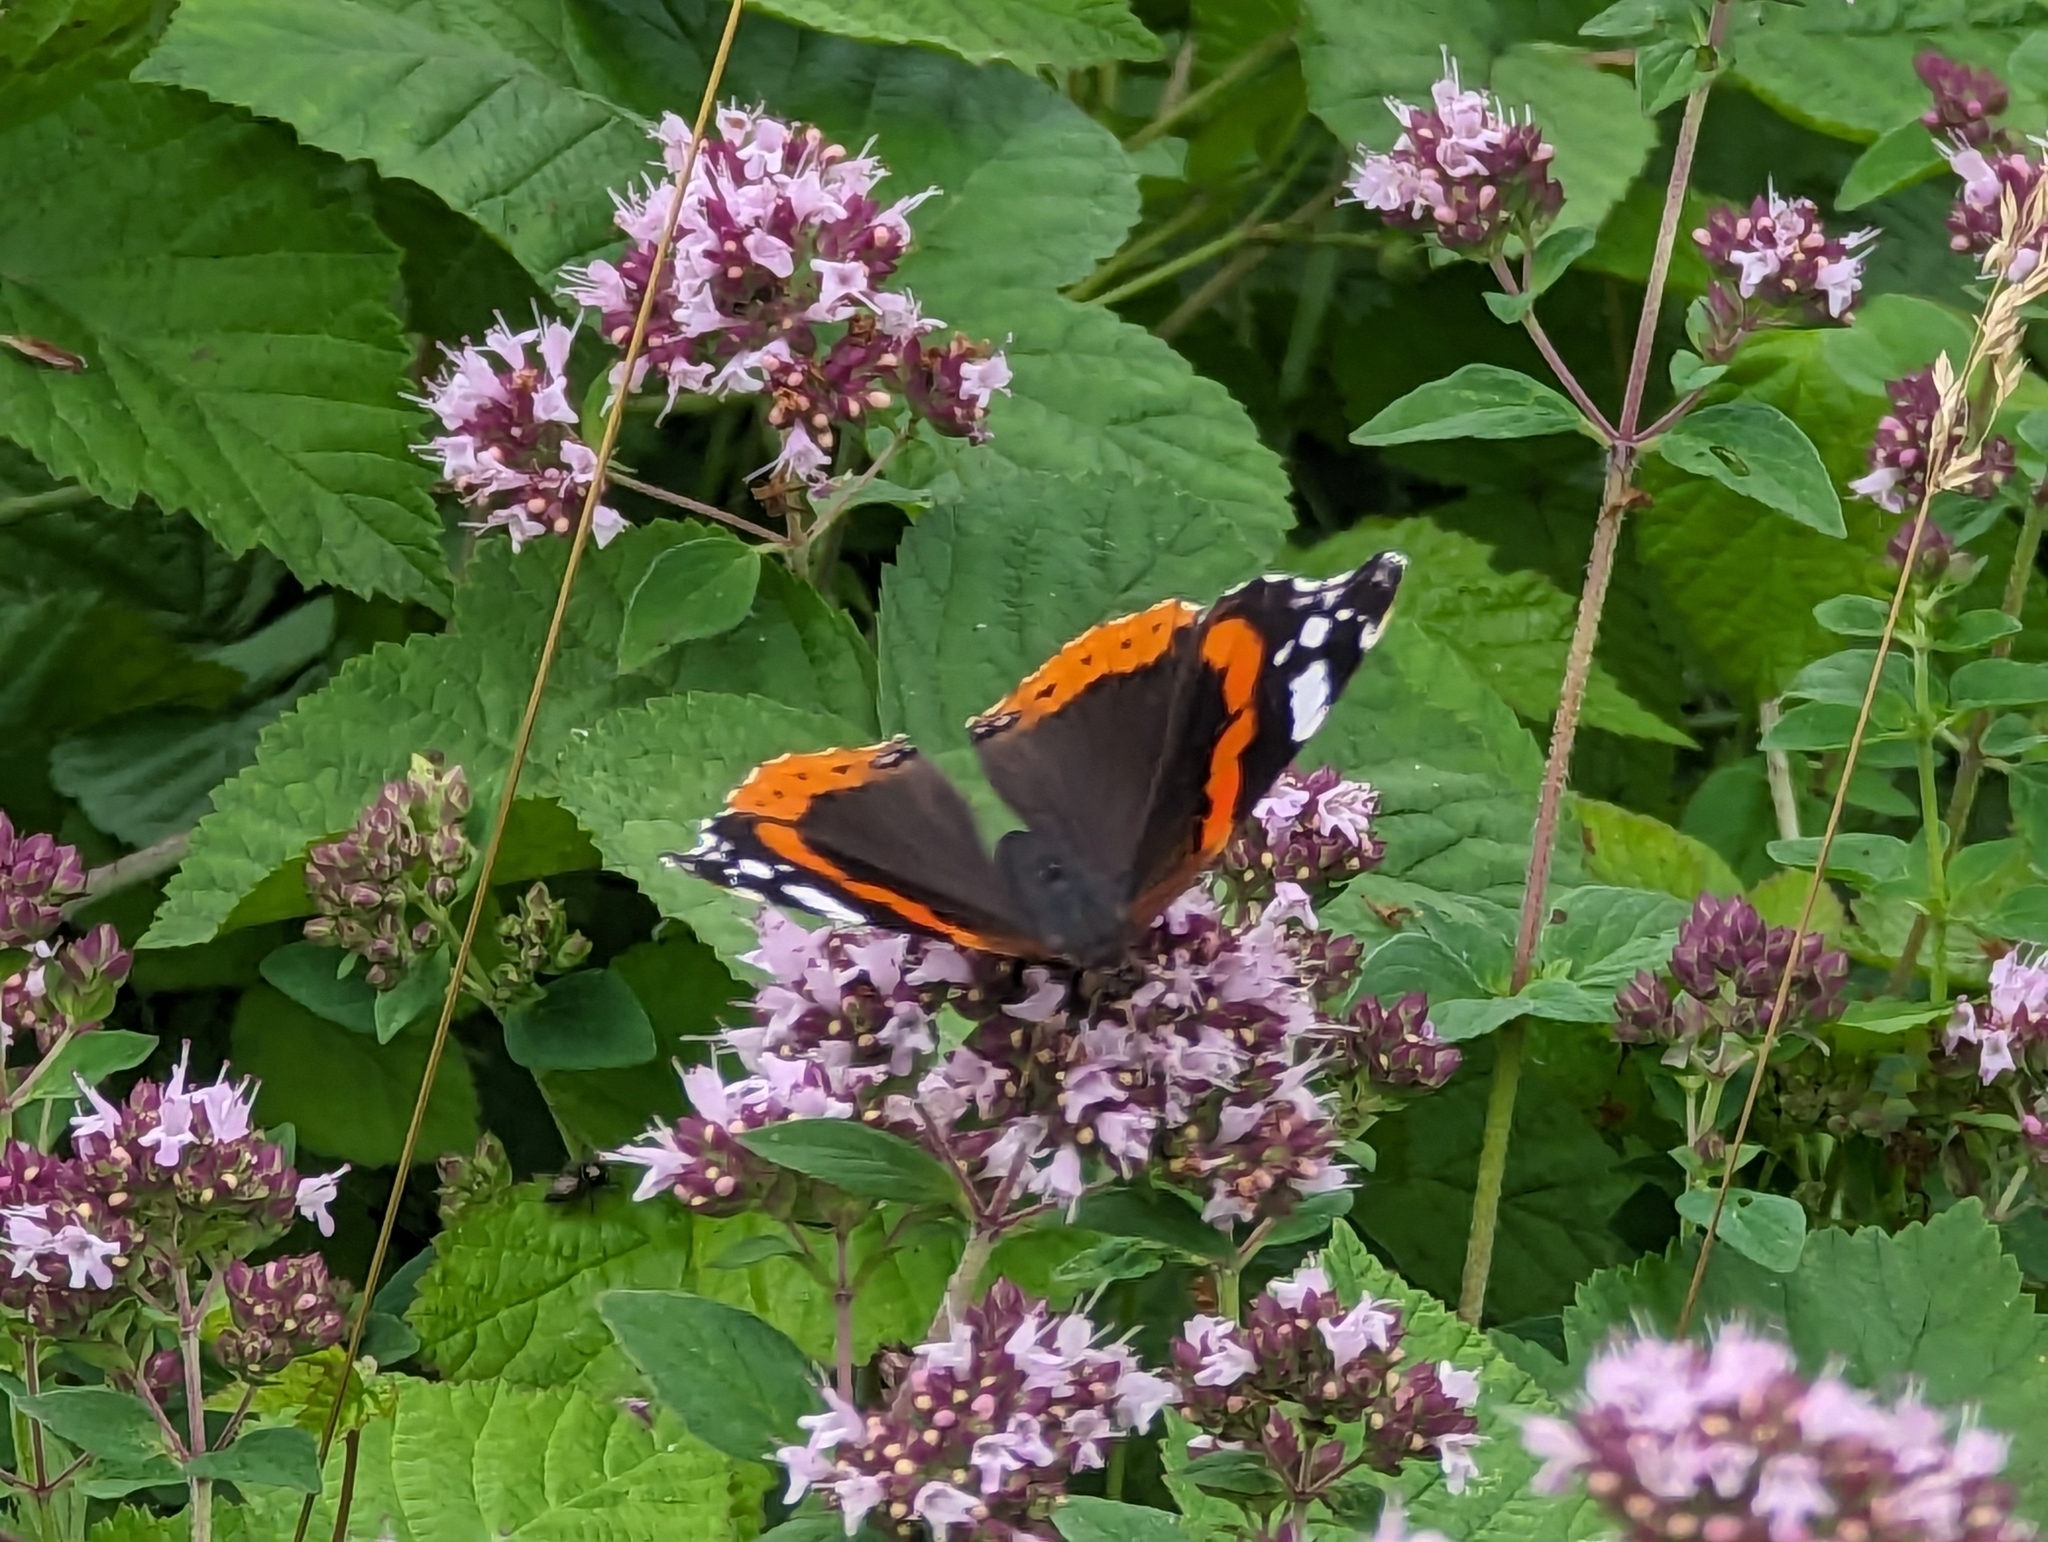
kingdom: Animalia
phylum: Arthropoda
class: Insecta
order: Lepidoptera
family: Nymphalidae
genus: Vanessa
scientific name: Vanessa atalanta
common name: Red admiral
